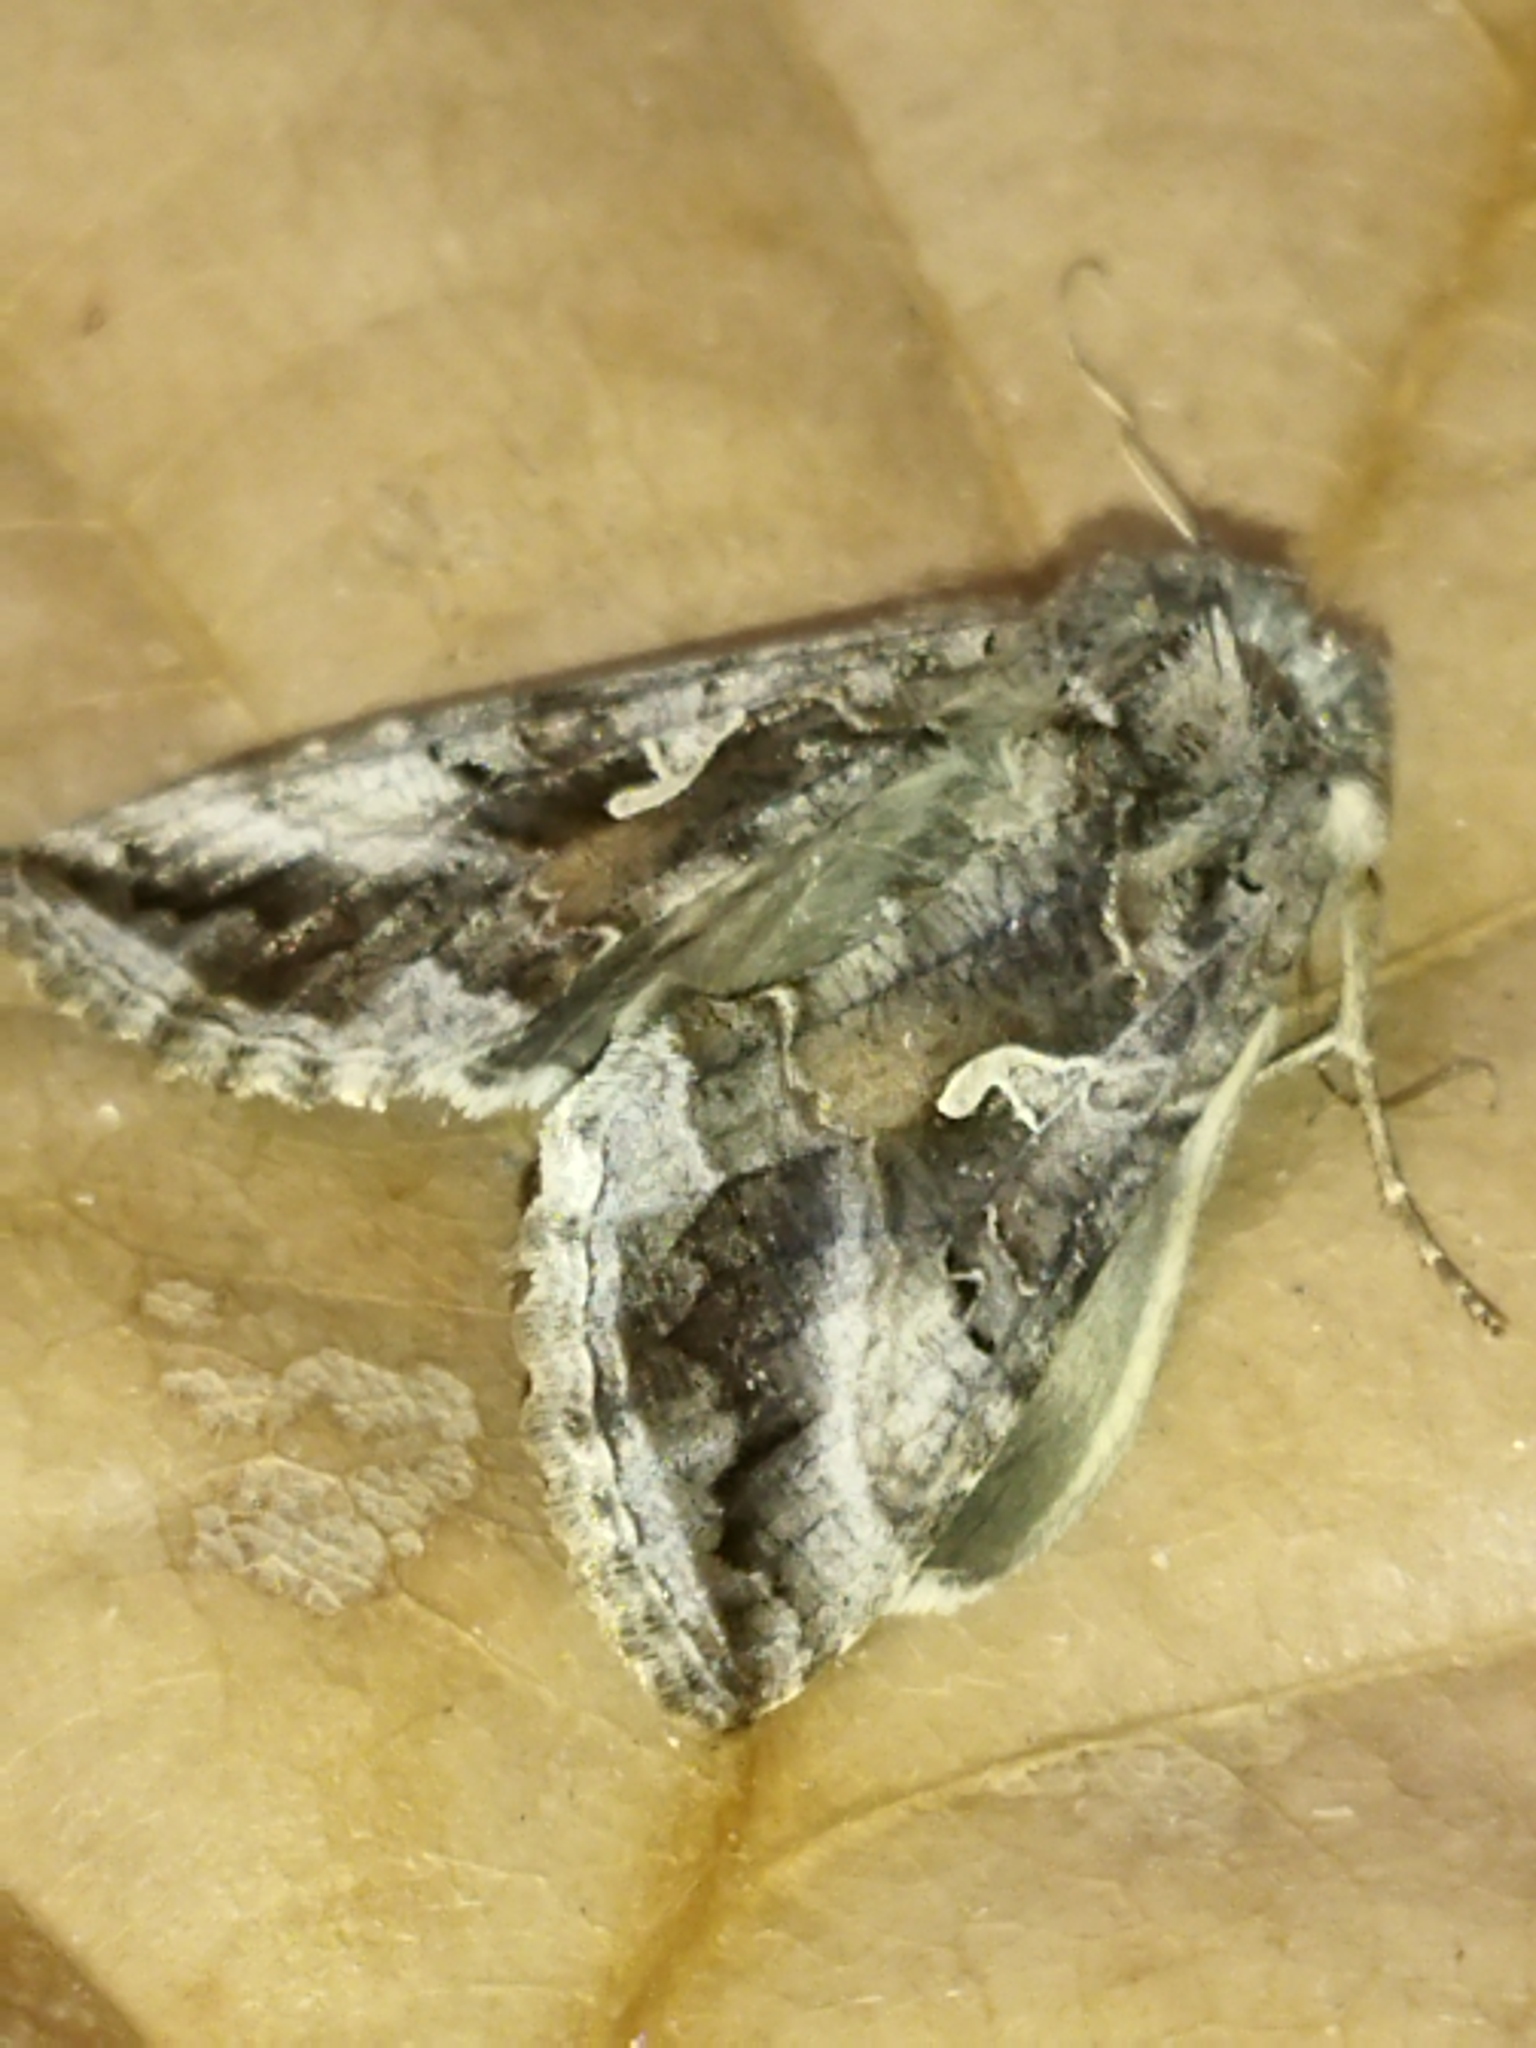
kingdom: Animalia
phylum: Arthropoda
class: Insecta
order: Lepidoptera
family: Noctuidae
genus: Autographa
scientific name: Autographa gamma
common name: Silver y
